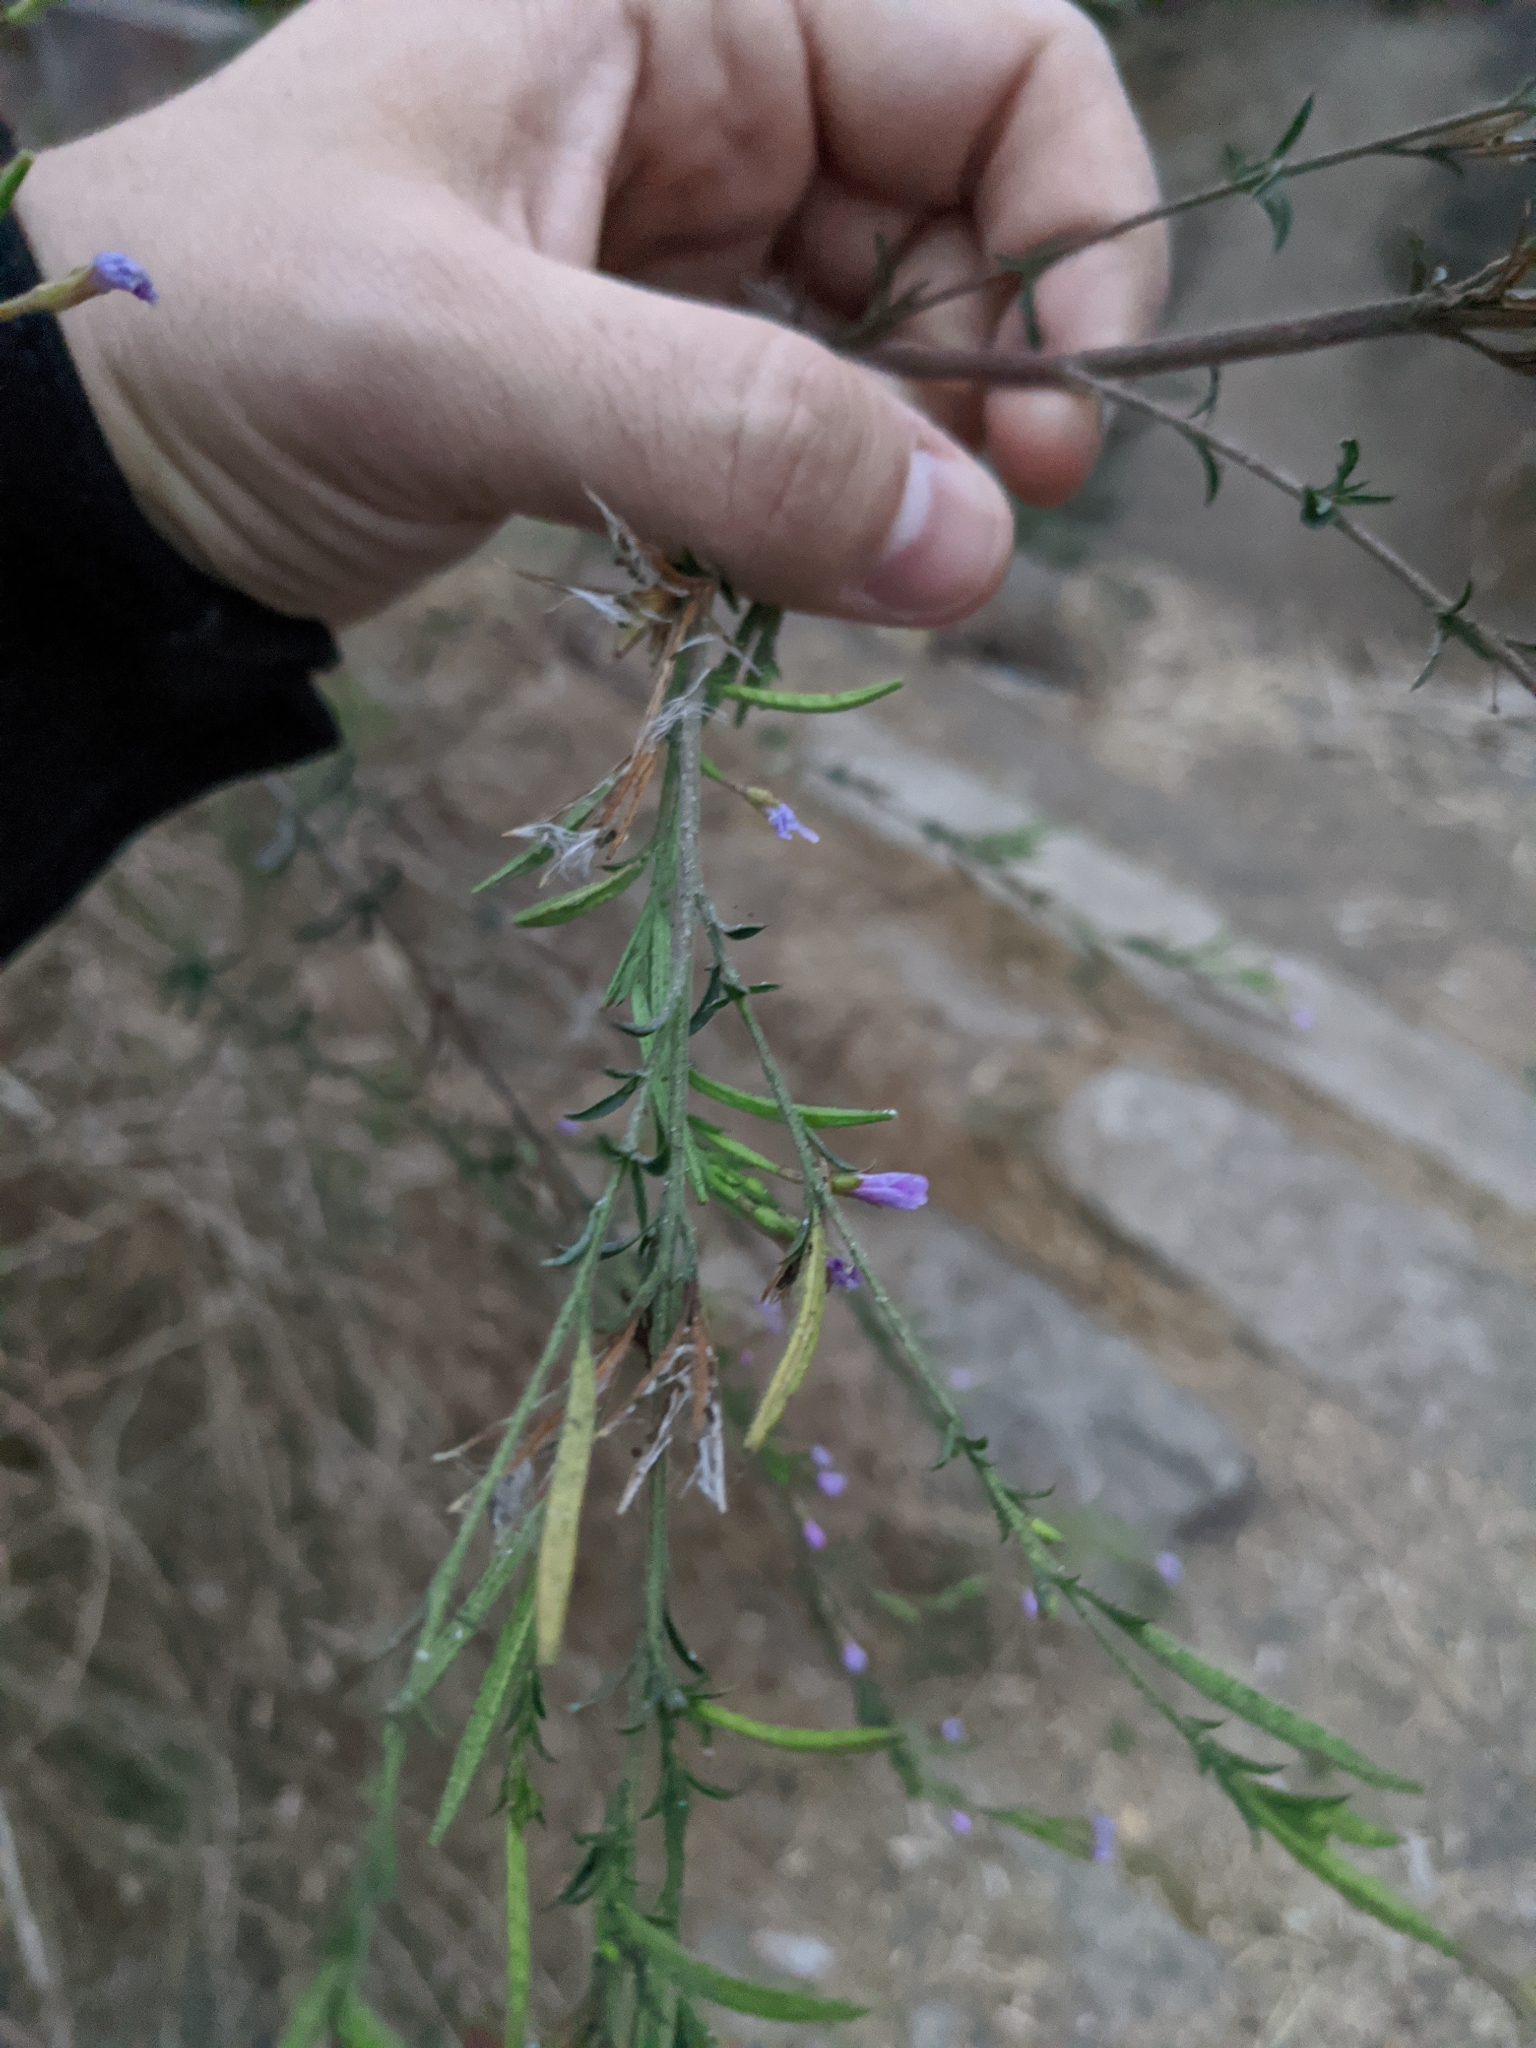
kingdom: Plantae
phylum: Tracheophyta
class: Magnoliopsida
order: Myrtales
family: Onagraceae
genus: Epilobium
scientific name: Epilobium brachycarpum
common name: Annual willowherb
